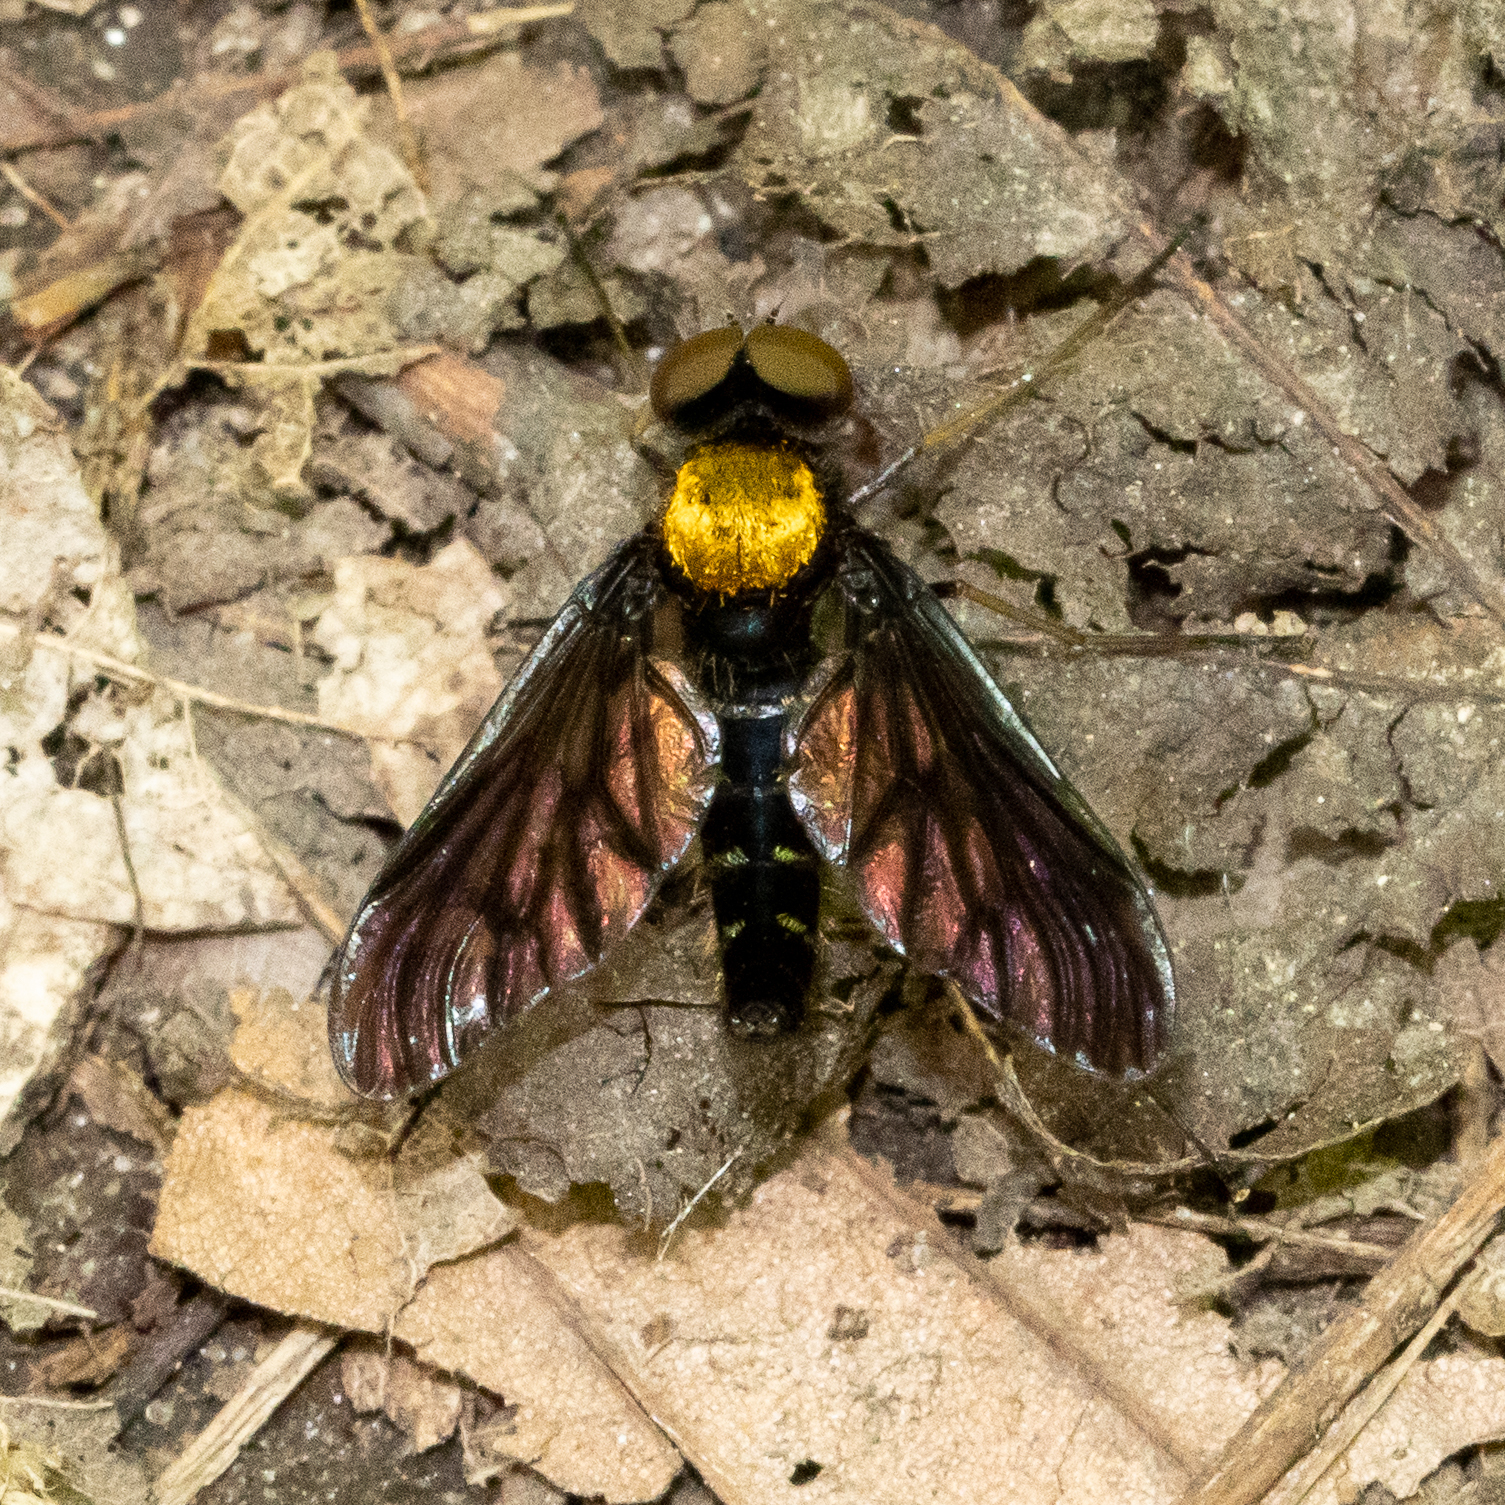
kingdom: Animalia
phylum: Arthropoda
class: Insecta
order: Diptera
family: Rhagionidae
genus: Chrysopilus
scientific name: Chrysopilus thoracicus
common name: Golden-backed snipe fly
